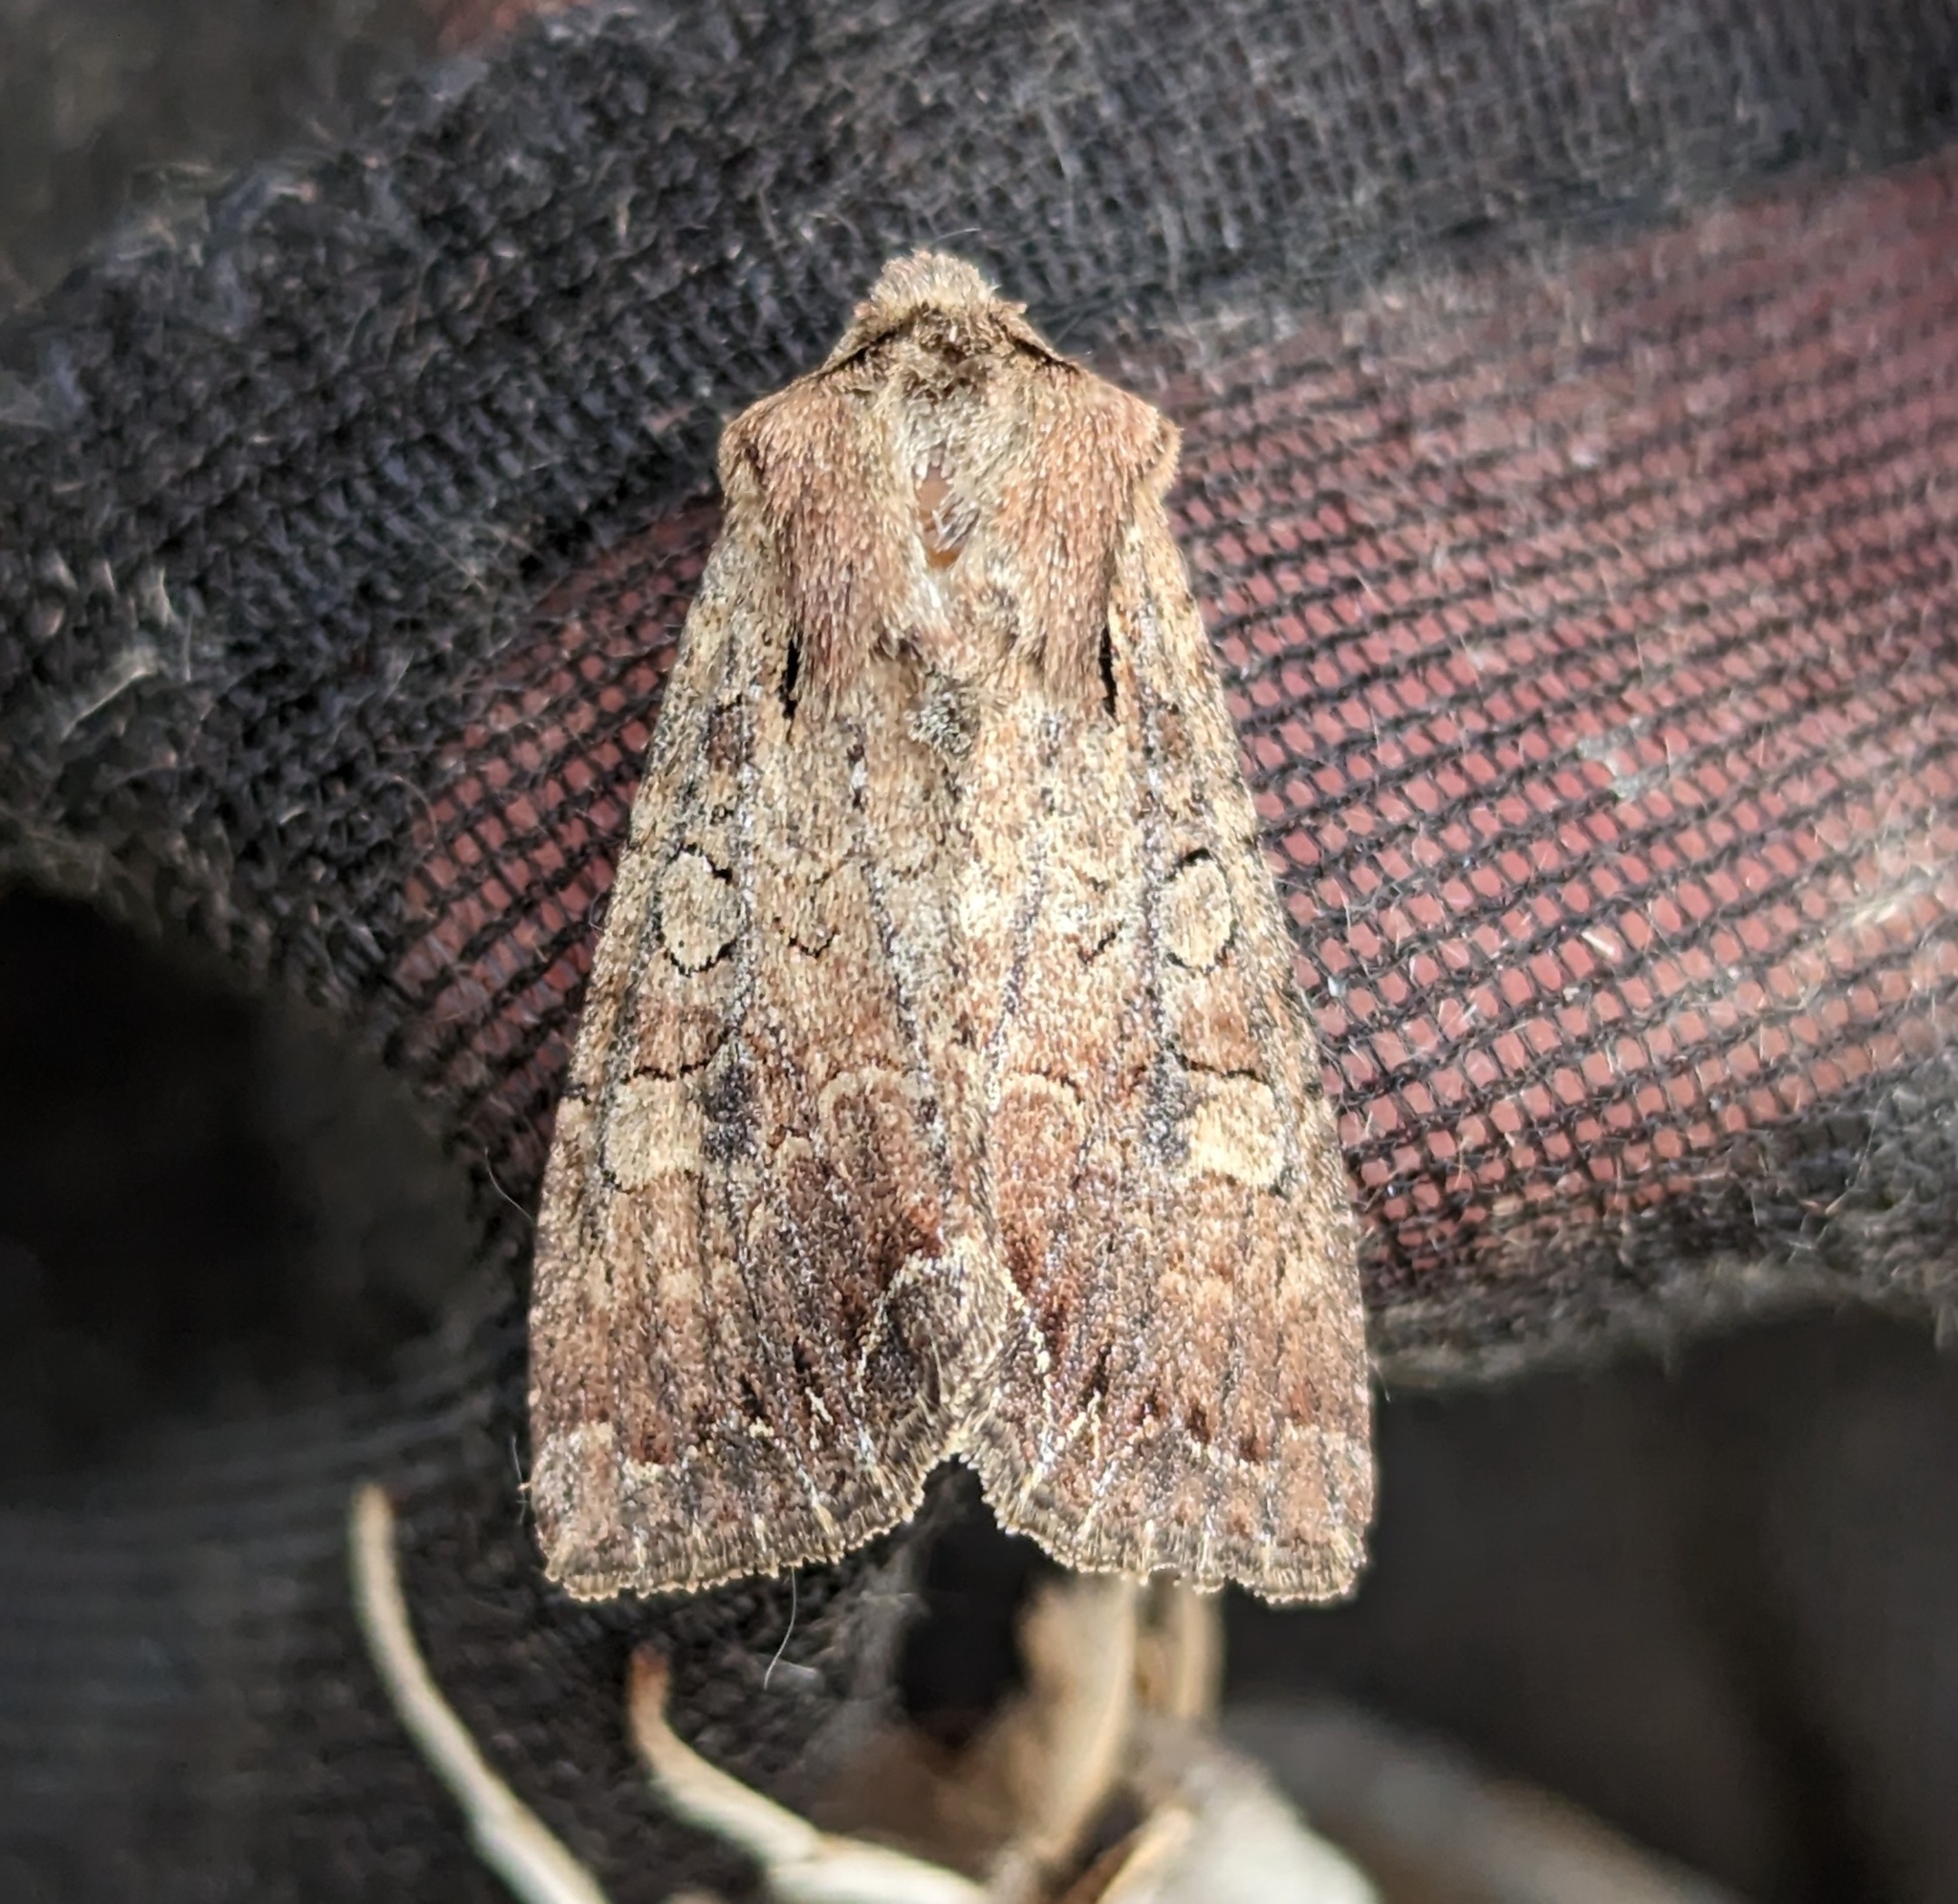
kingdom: Animalia
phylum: Arthropoda
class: Insecta
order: Lepidoptera
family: Noctuidae
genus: Lacanobia
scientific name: Lacanobia radix
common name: Garden arches moth
